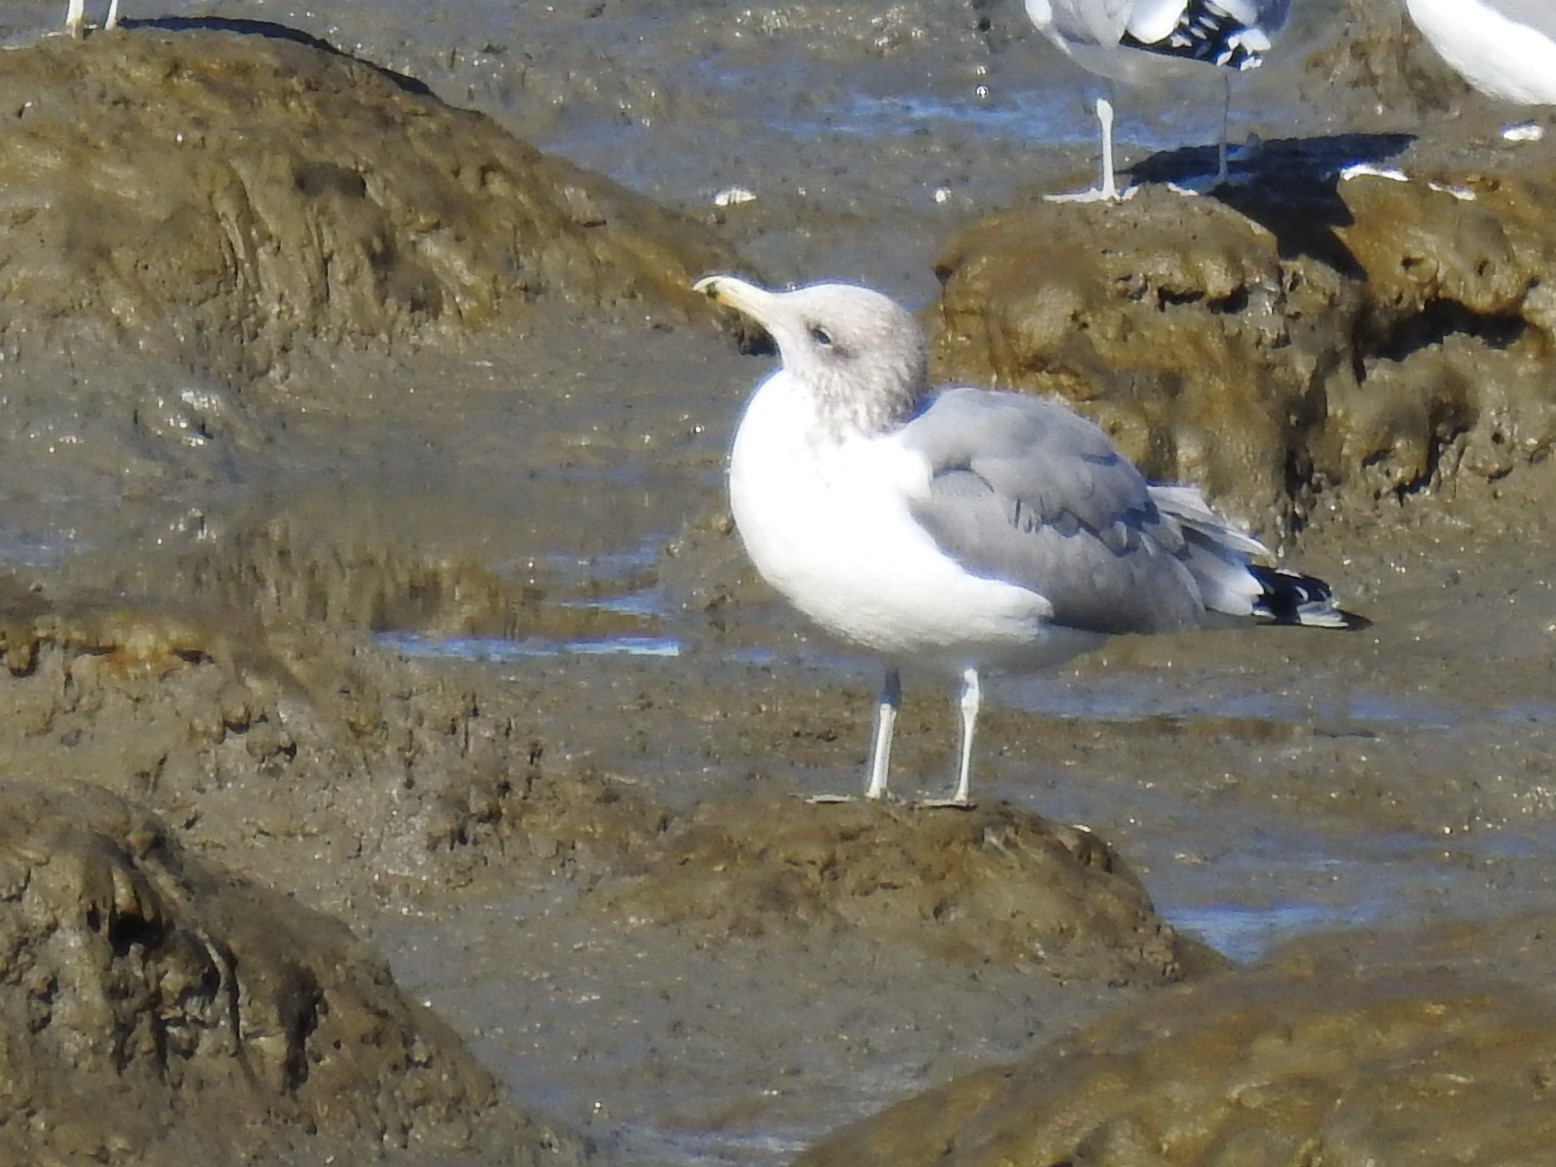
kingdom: Animalia
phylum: Chordata
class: Aves
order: Charadriiformes
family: Laridae
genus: Larus
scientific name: Larus californicus
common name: California gull
